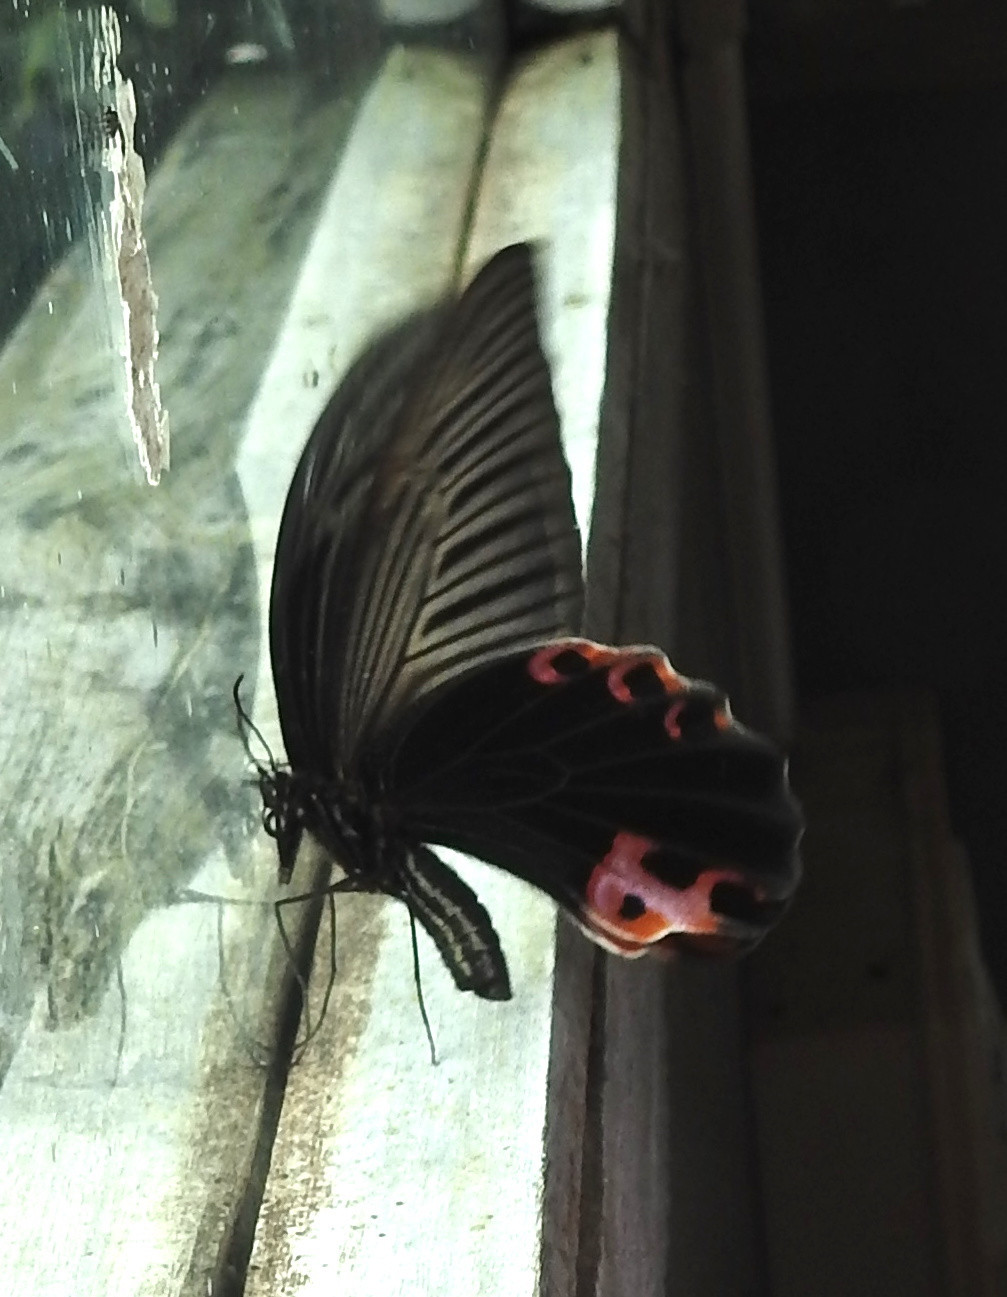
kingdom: Animalia
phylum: Arthropoda
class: Insecta
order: Lepidoptera
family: Papilionidae
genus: Papilio
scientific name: Papilio protenor
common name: Spangle
